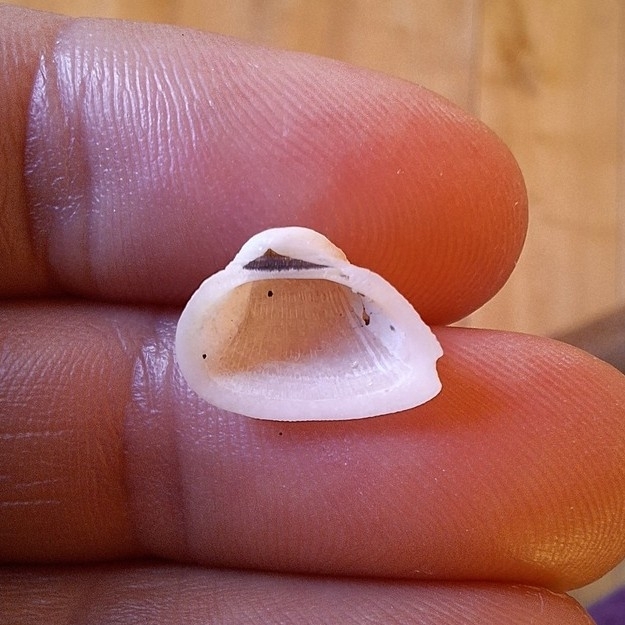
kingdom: Animalia
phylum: Mollusca
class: Bivalvia
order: Arcida
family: Noetiidae
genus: Striarca
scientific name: Striarca lactea
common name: Milky-white ark
